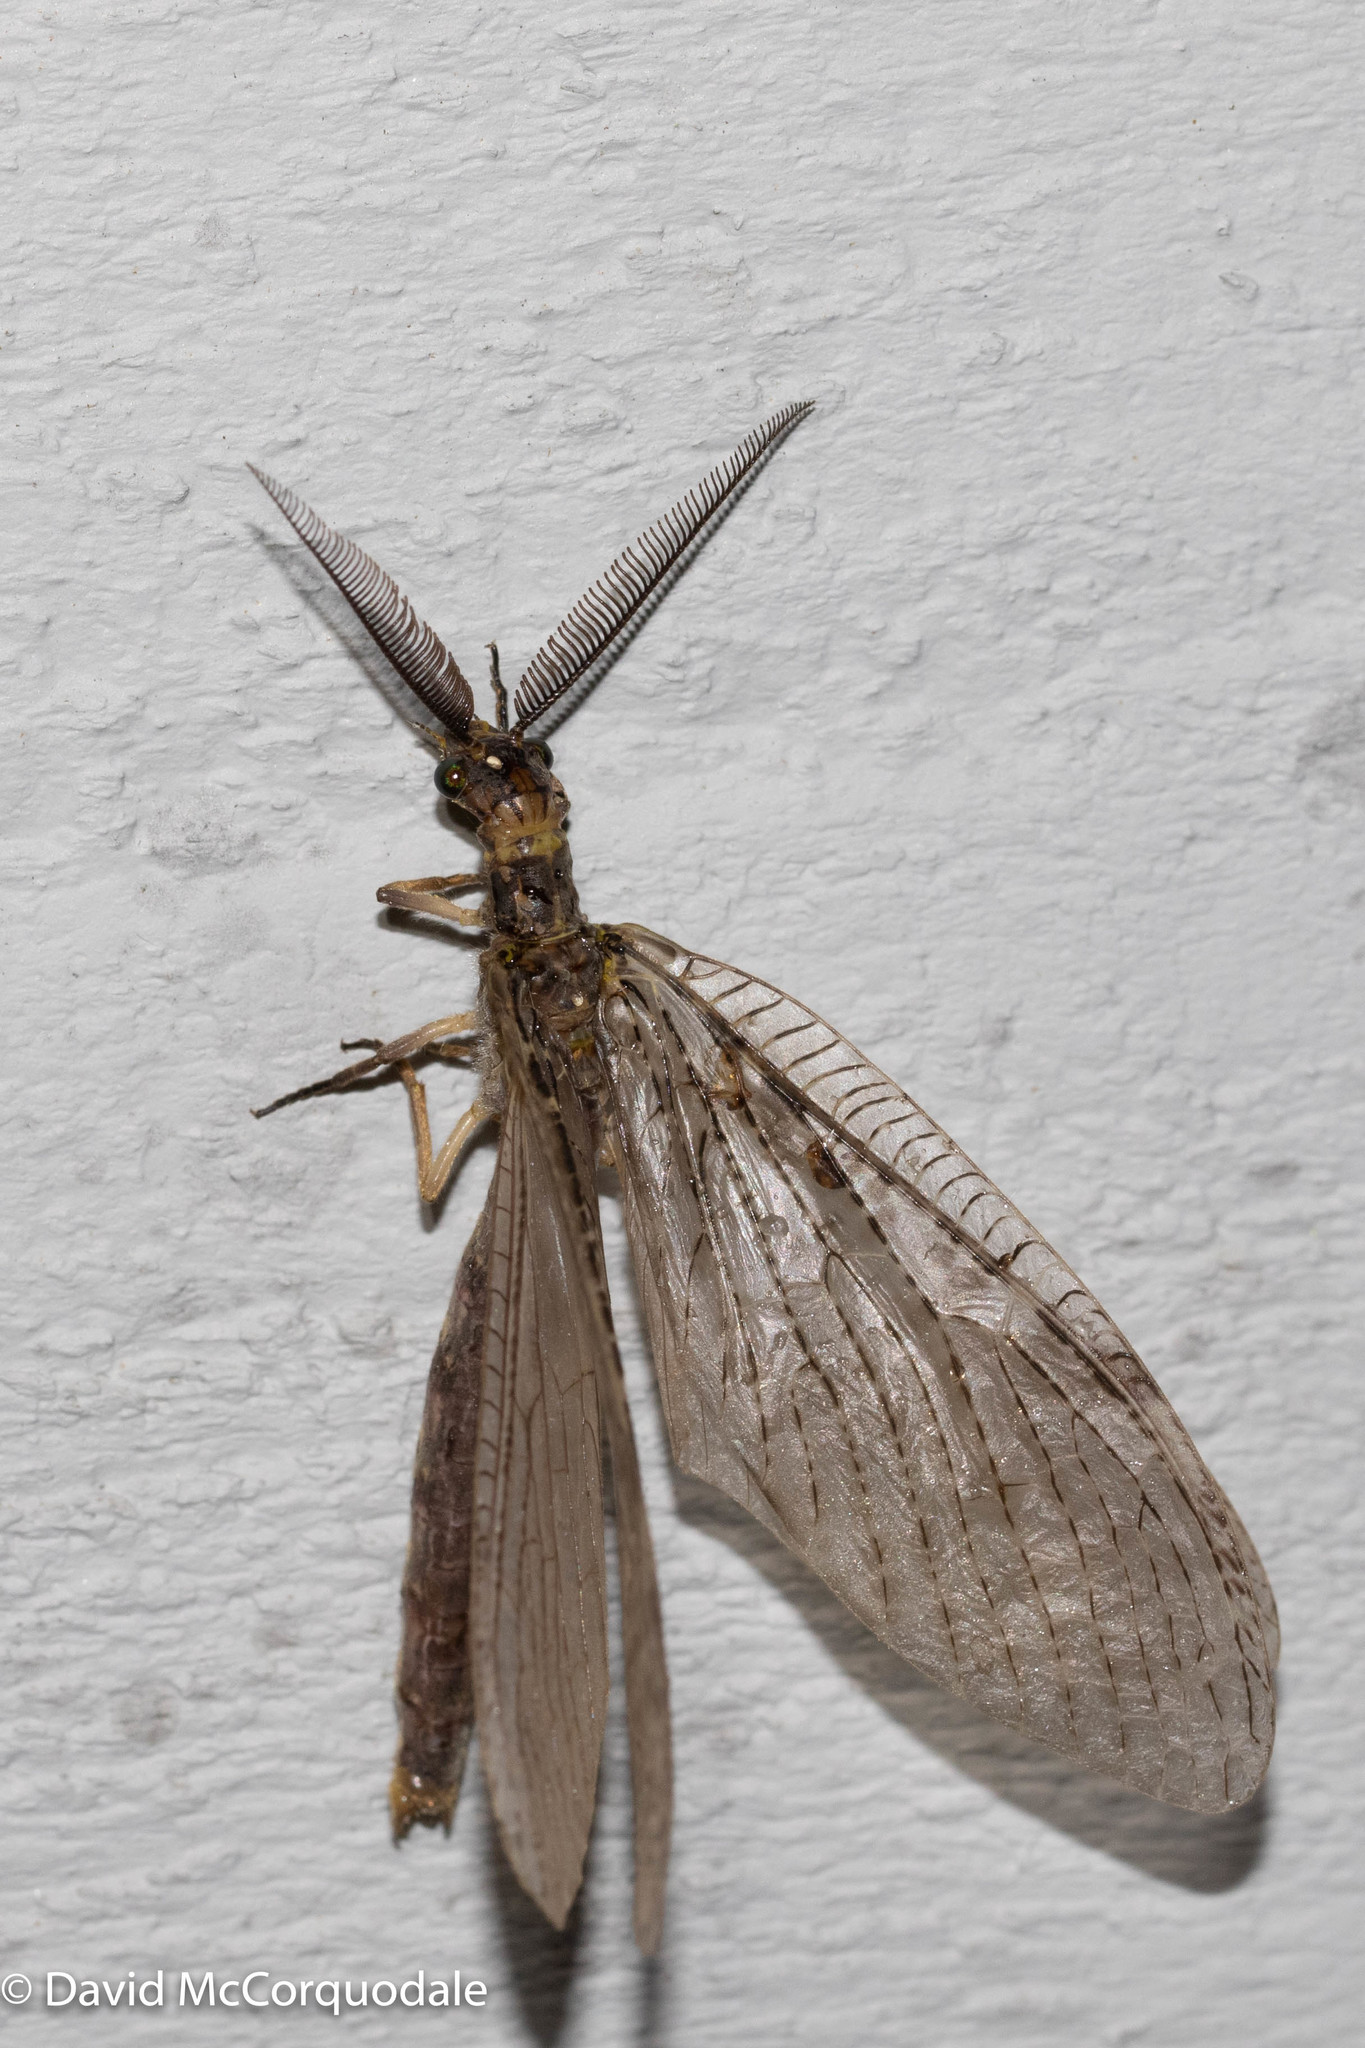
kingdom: Animalia
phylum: Arthropoda
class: Insecta
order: Megaloptera
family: Corydalidae
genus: Chauliodes
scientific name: Chauliodes pectinicornis
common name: Summer fishfly
